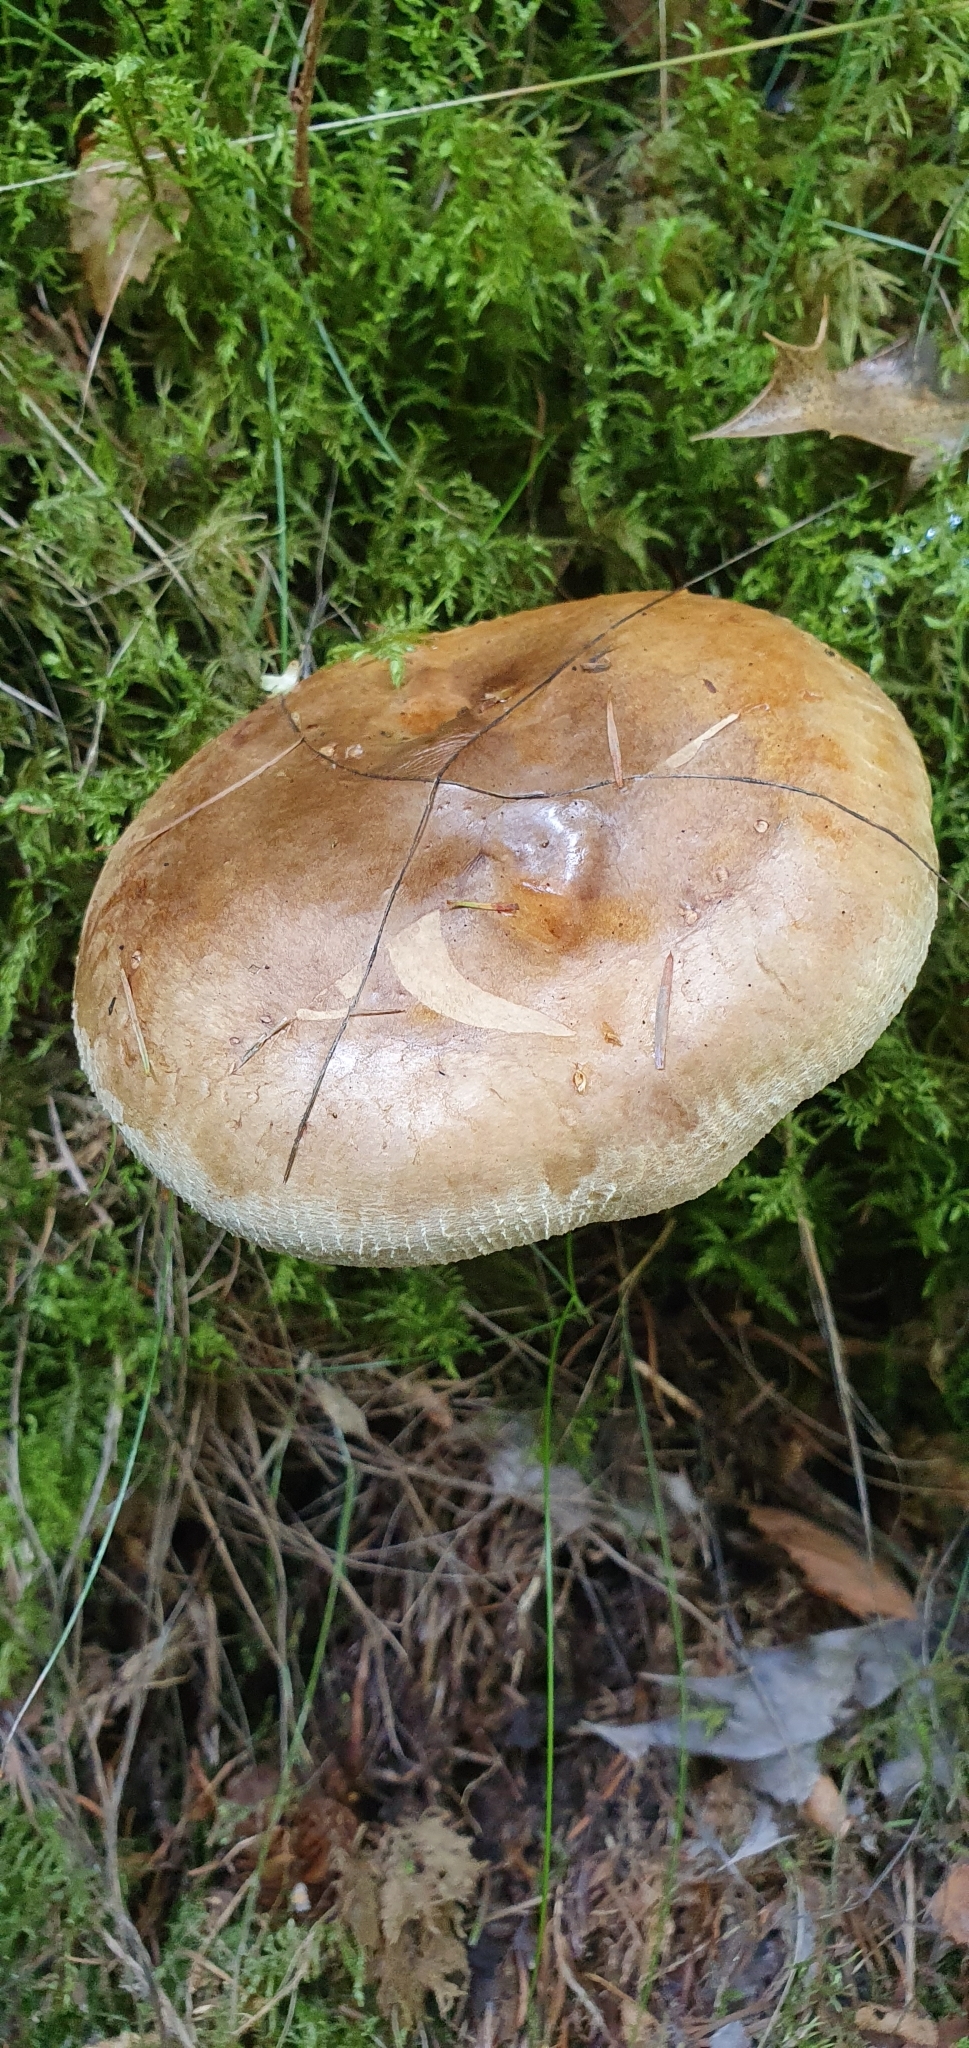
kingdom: Fungi
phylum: Basidiomycota
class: Agaricomycetes
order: Boletales
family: Paxillaceae
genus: Paxillus
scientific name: Paxillus involutus
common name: Brown roll rim
